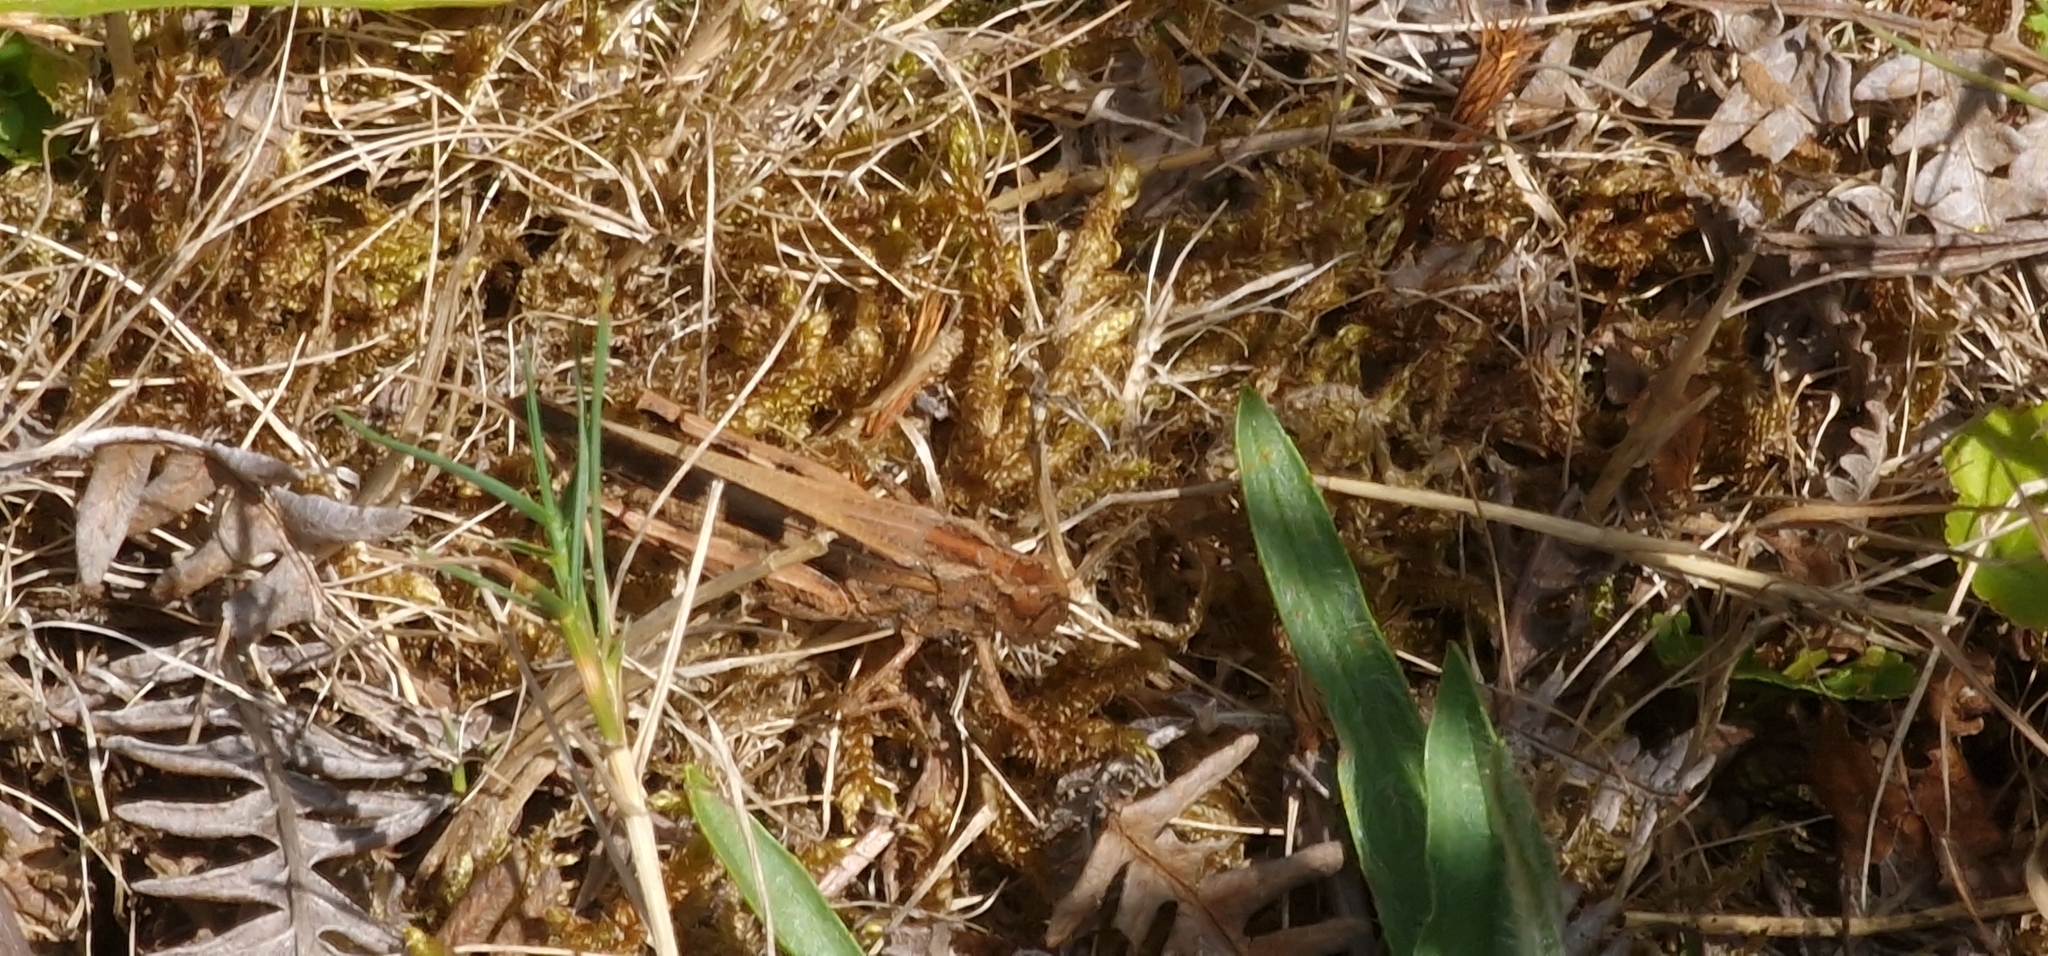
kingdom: Animalia
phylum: Arthropoda
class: Insecta
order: Orthoptera
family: Acrididae
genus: Aiolopus
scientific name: Aiolopus strepens
